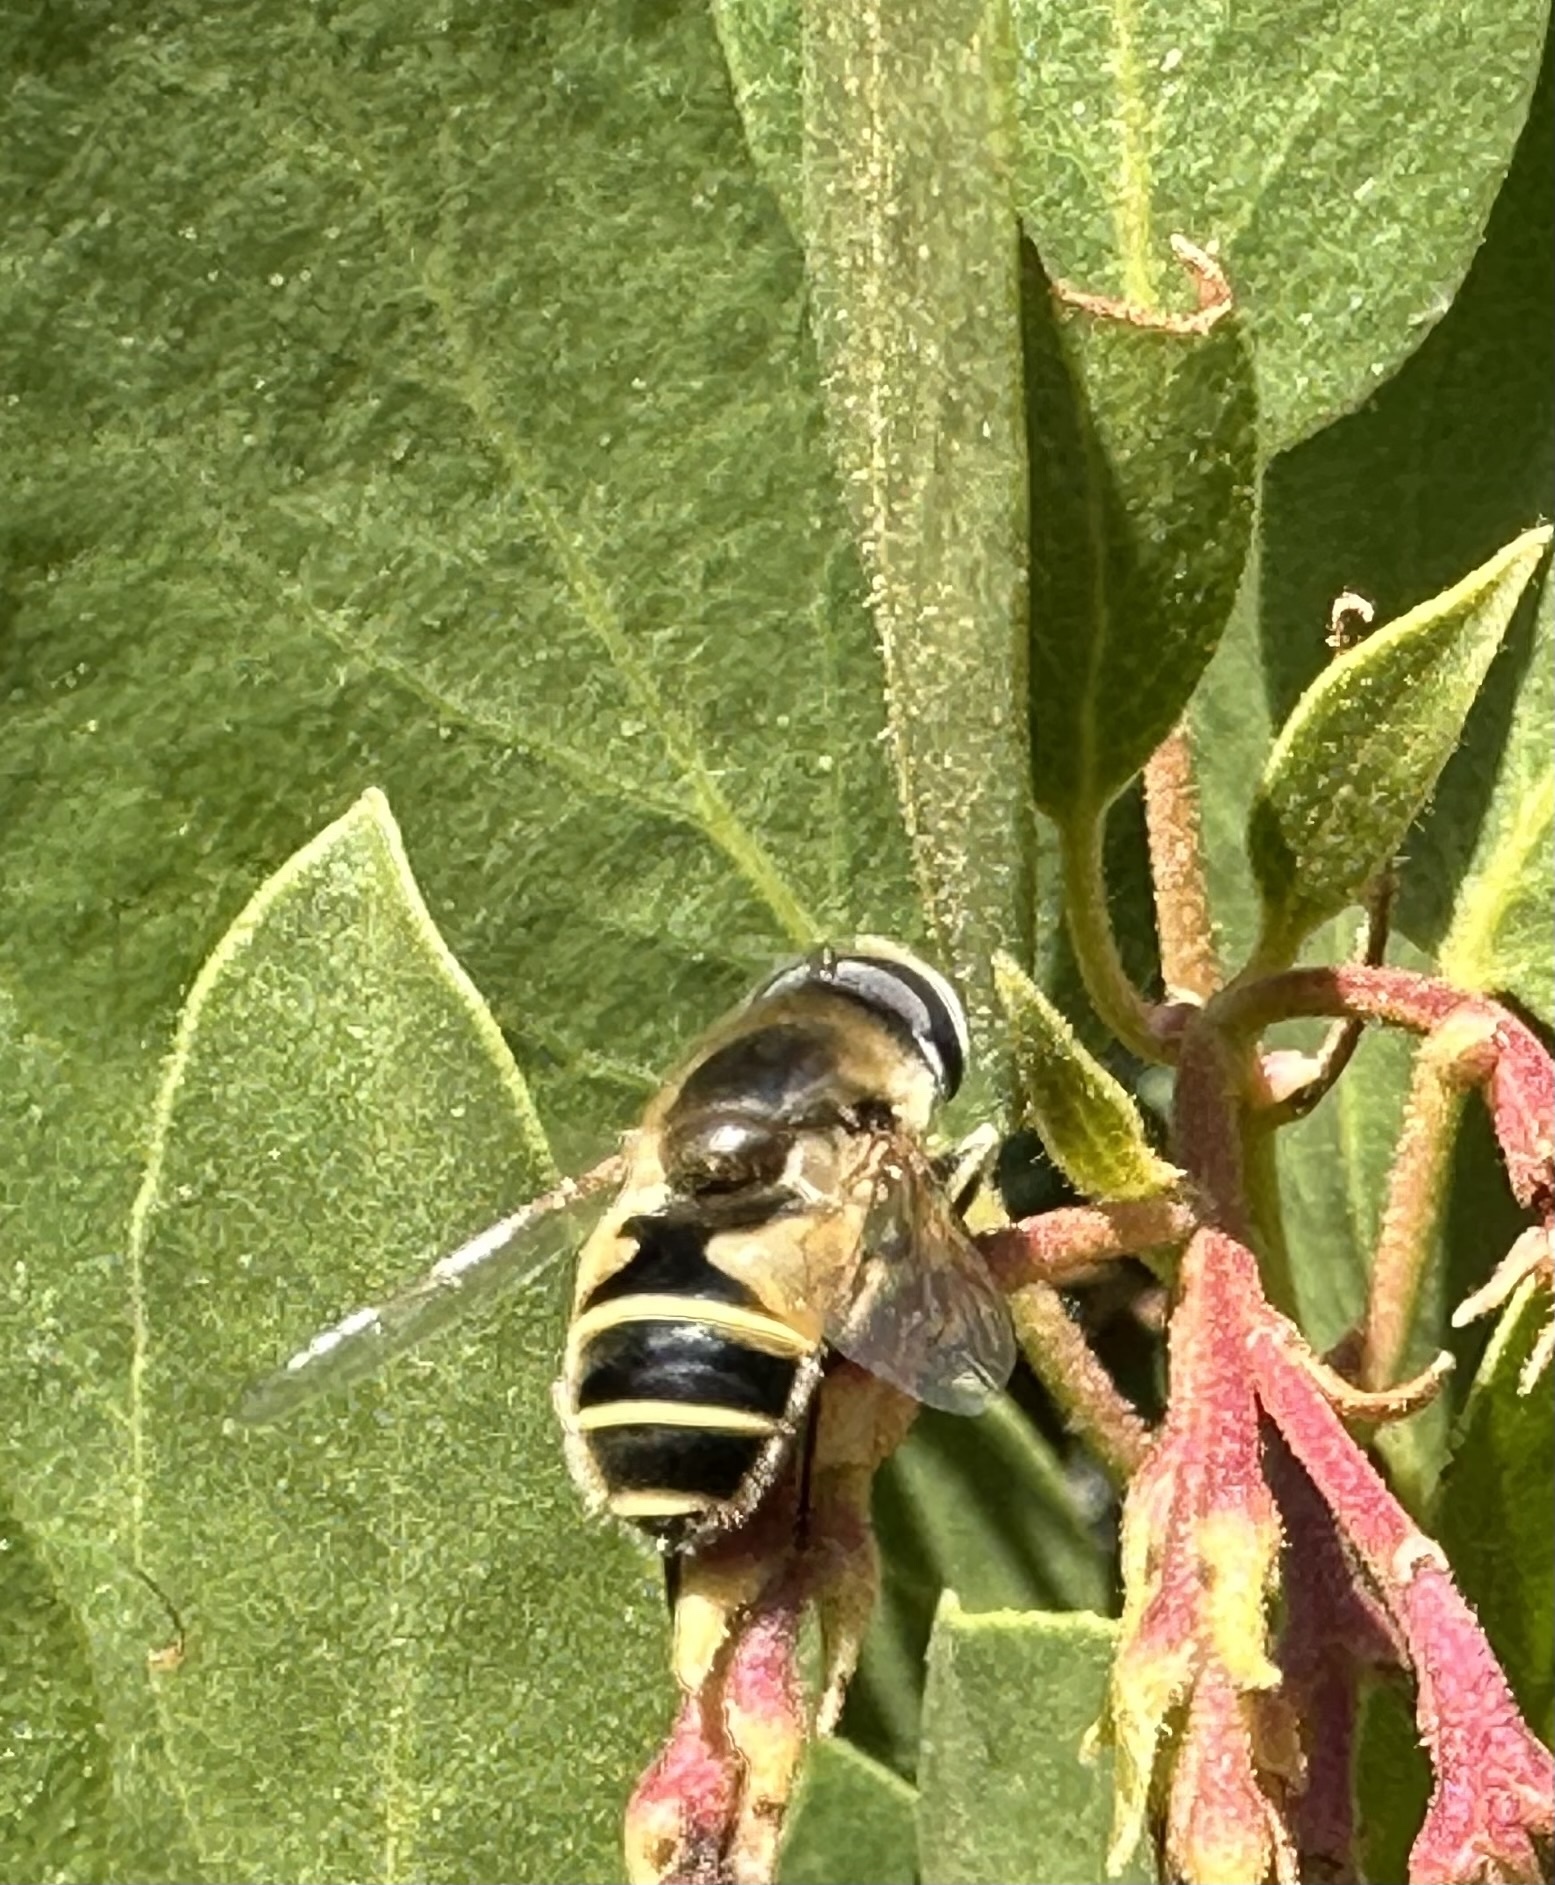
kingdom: Animalia
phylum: Arthropoda
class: Insecta
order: Diptera
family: Syrphidae
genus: Eristalis
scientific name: Eristalis hirta
